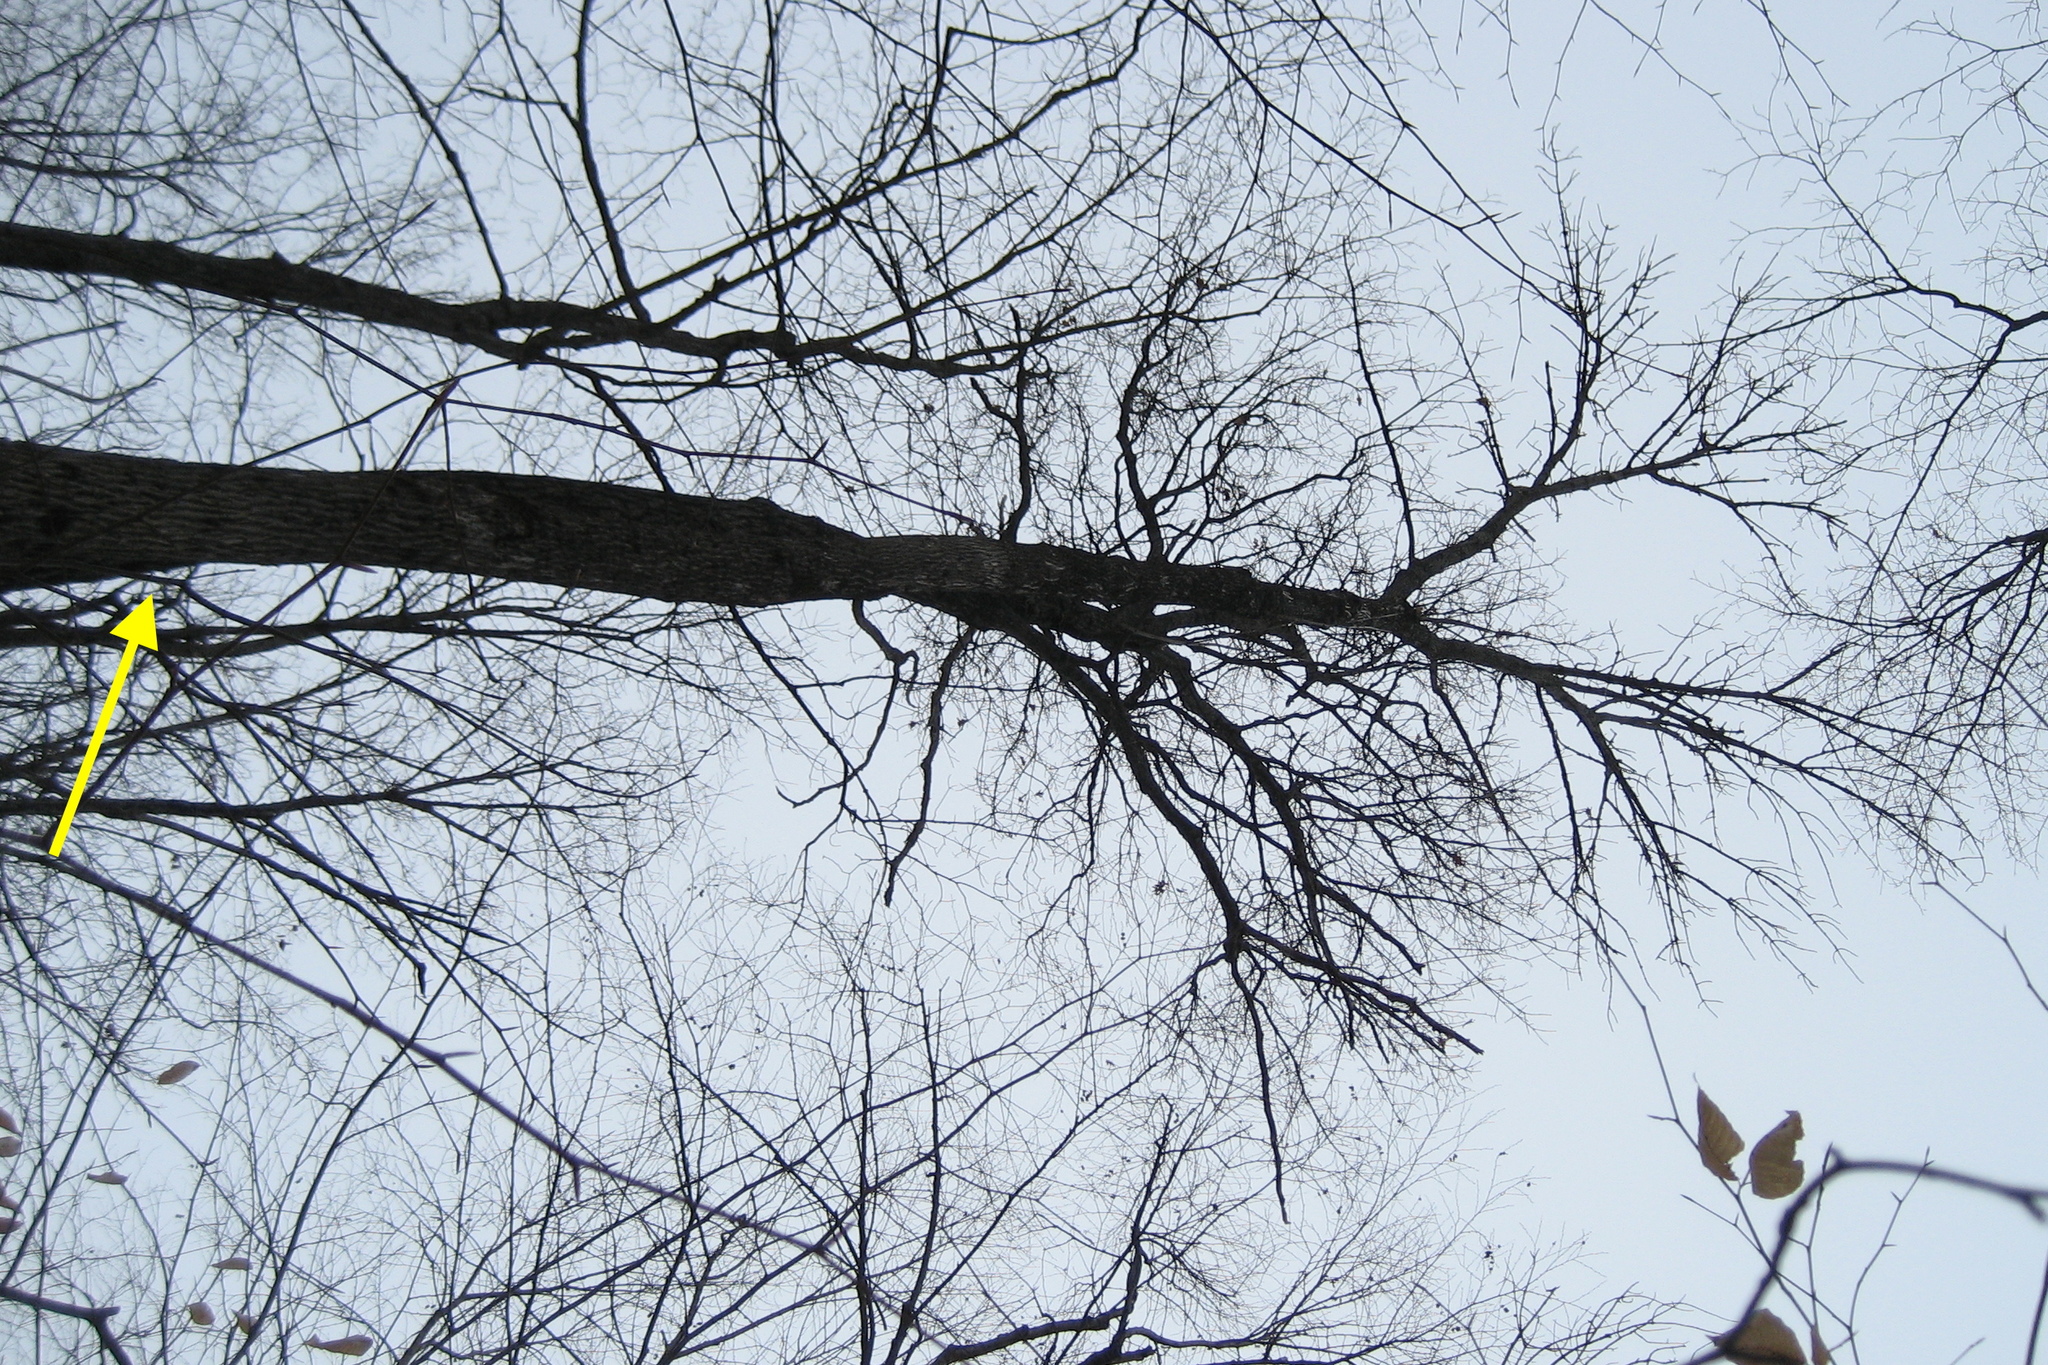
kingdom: Plantae
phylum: Tracheophyta
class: Magnoliopsida
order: Lamiales
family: Oleaceae
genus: Fraxinus
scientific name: Fraxinus americana
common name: White ash
